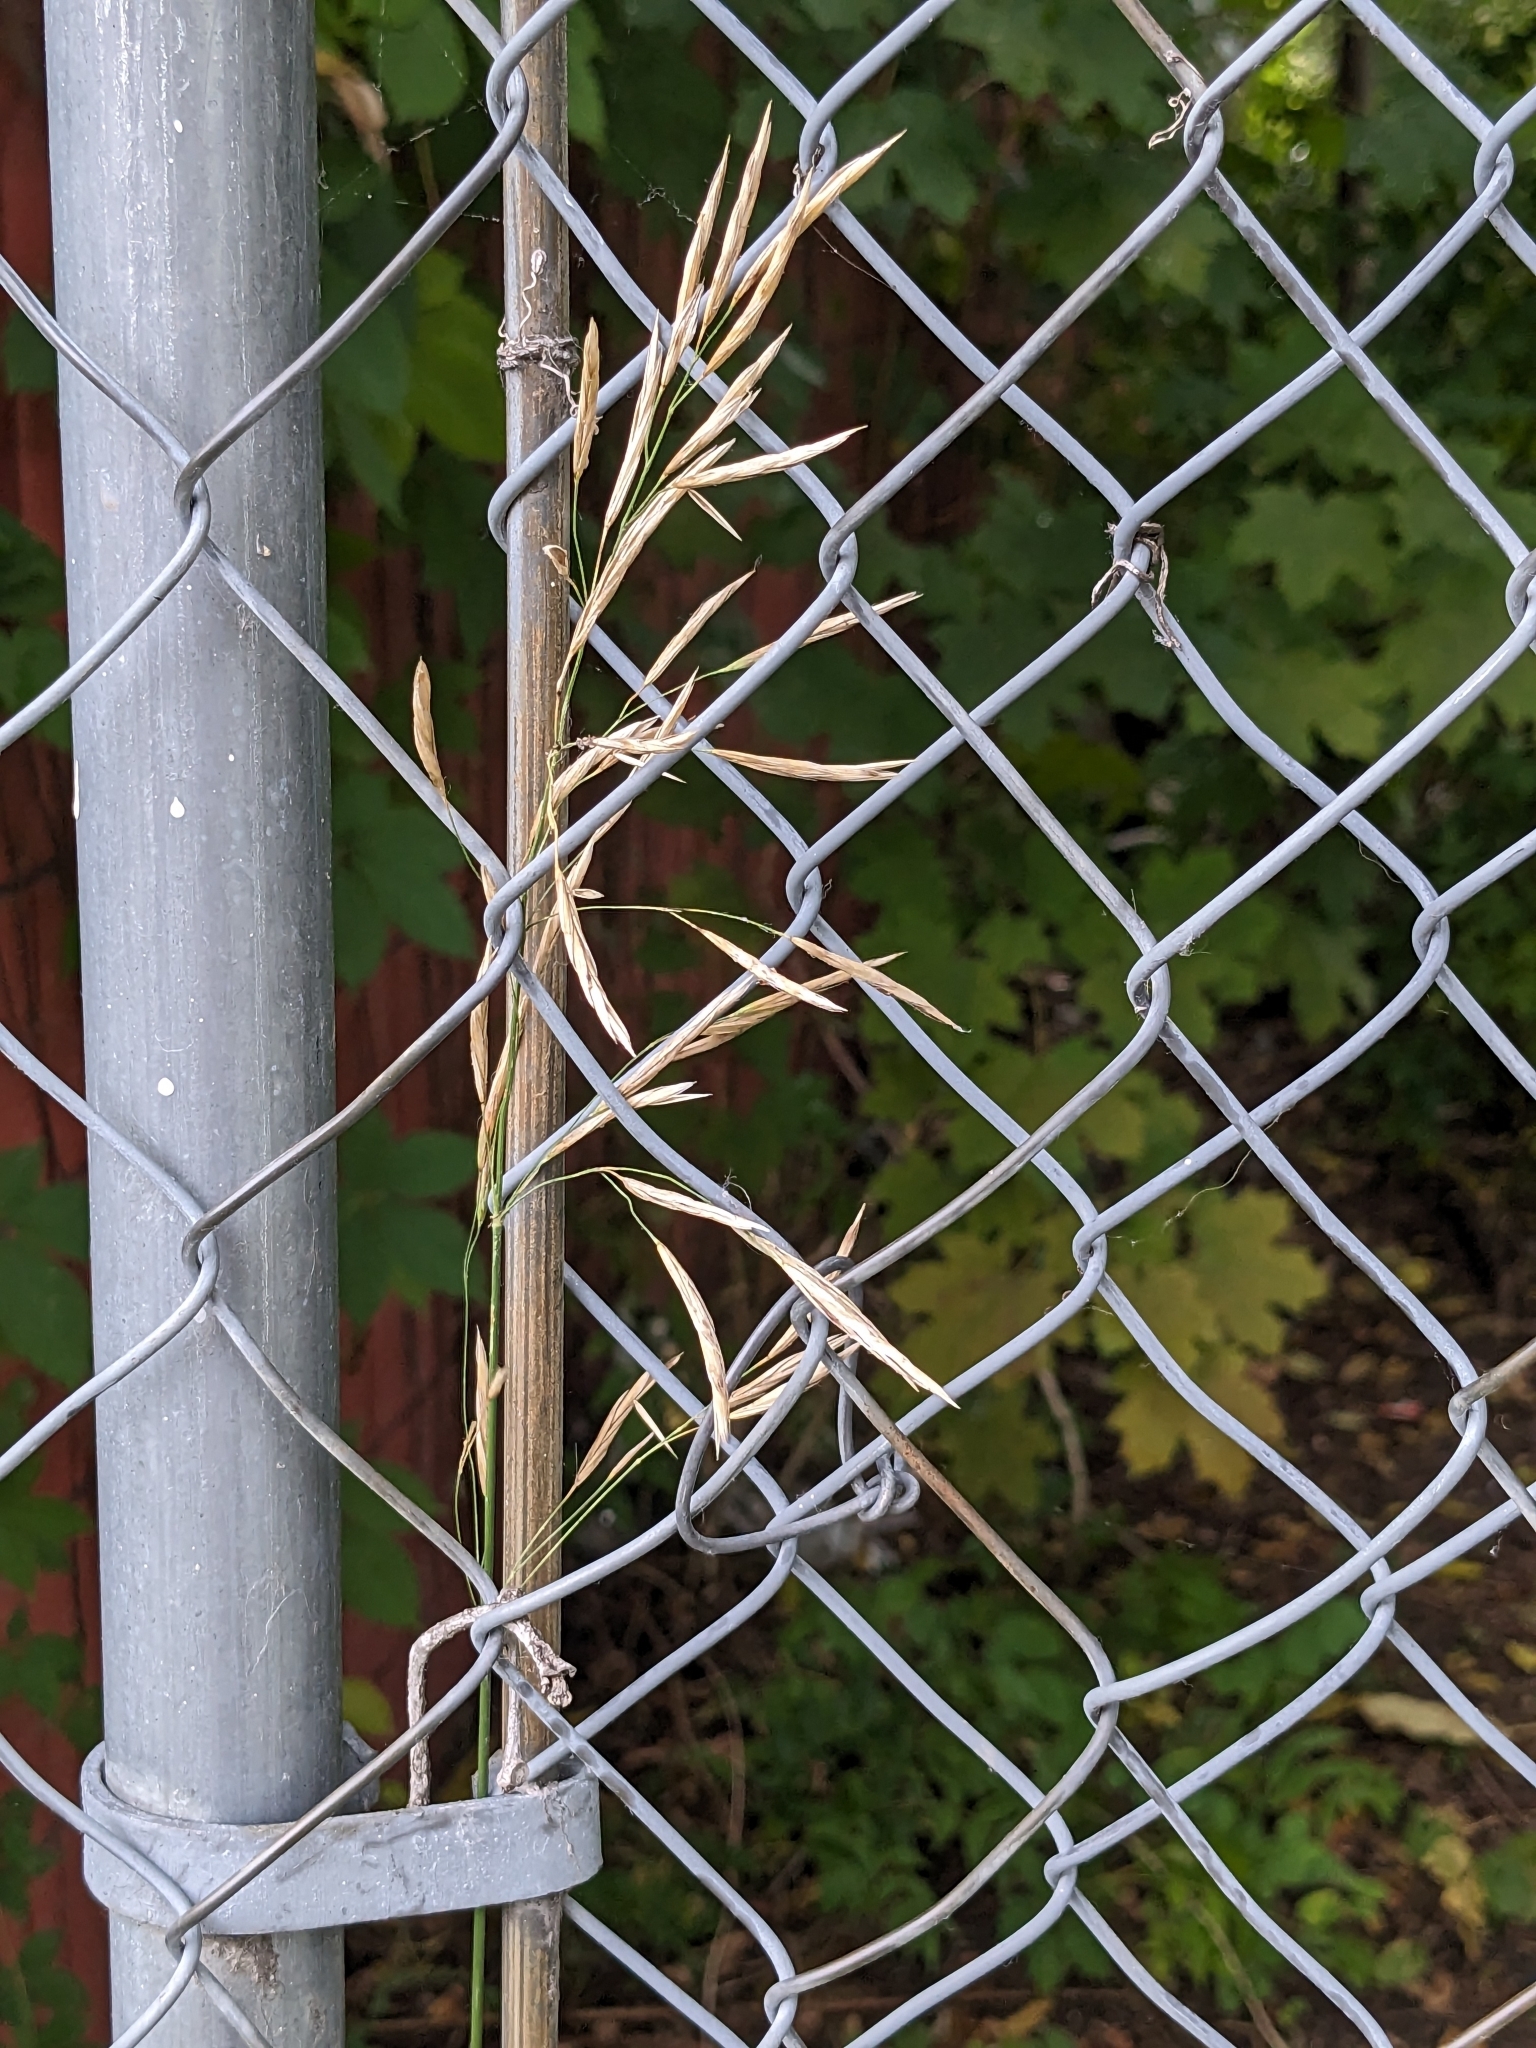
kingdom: Plantae
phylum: Tracheophyta
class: Liliopsida
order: Poales
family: Poaceae
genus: Bromus
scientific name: Bromus inermis
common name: Smooth brome
